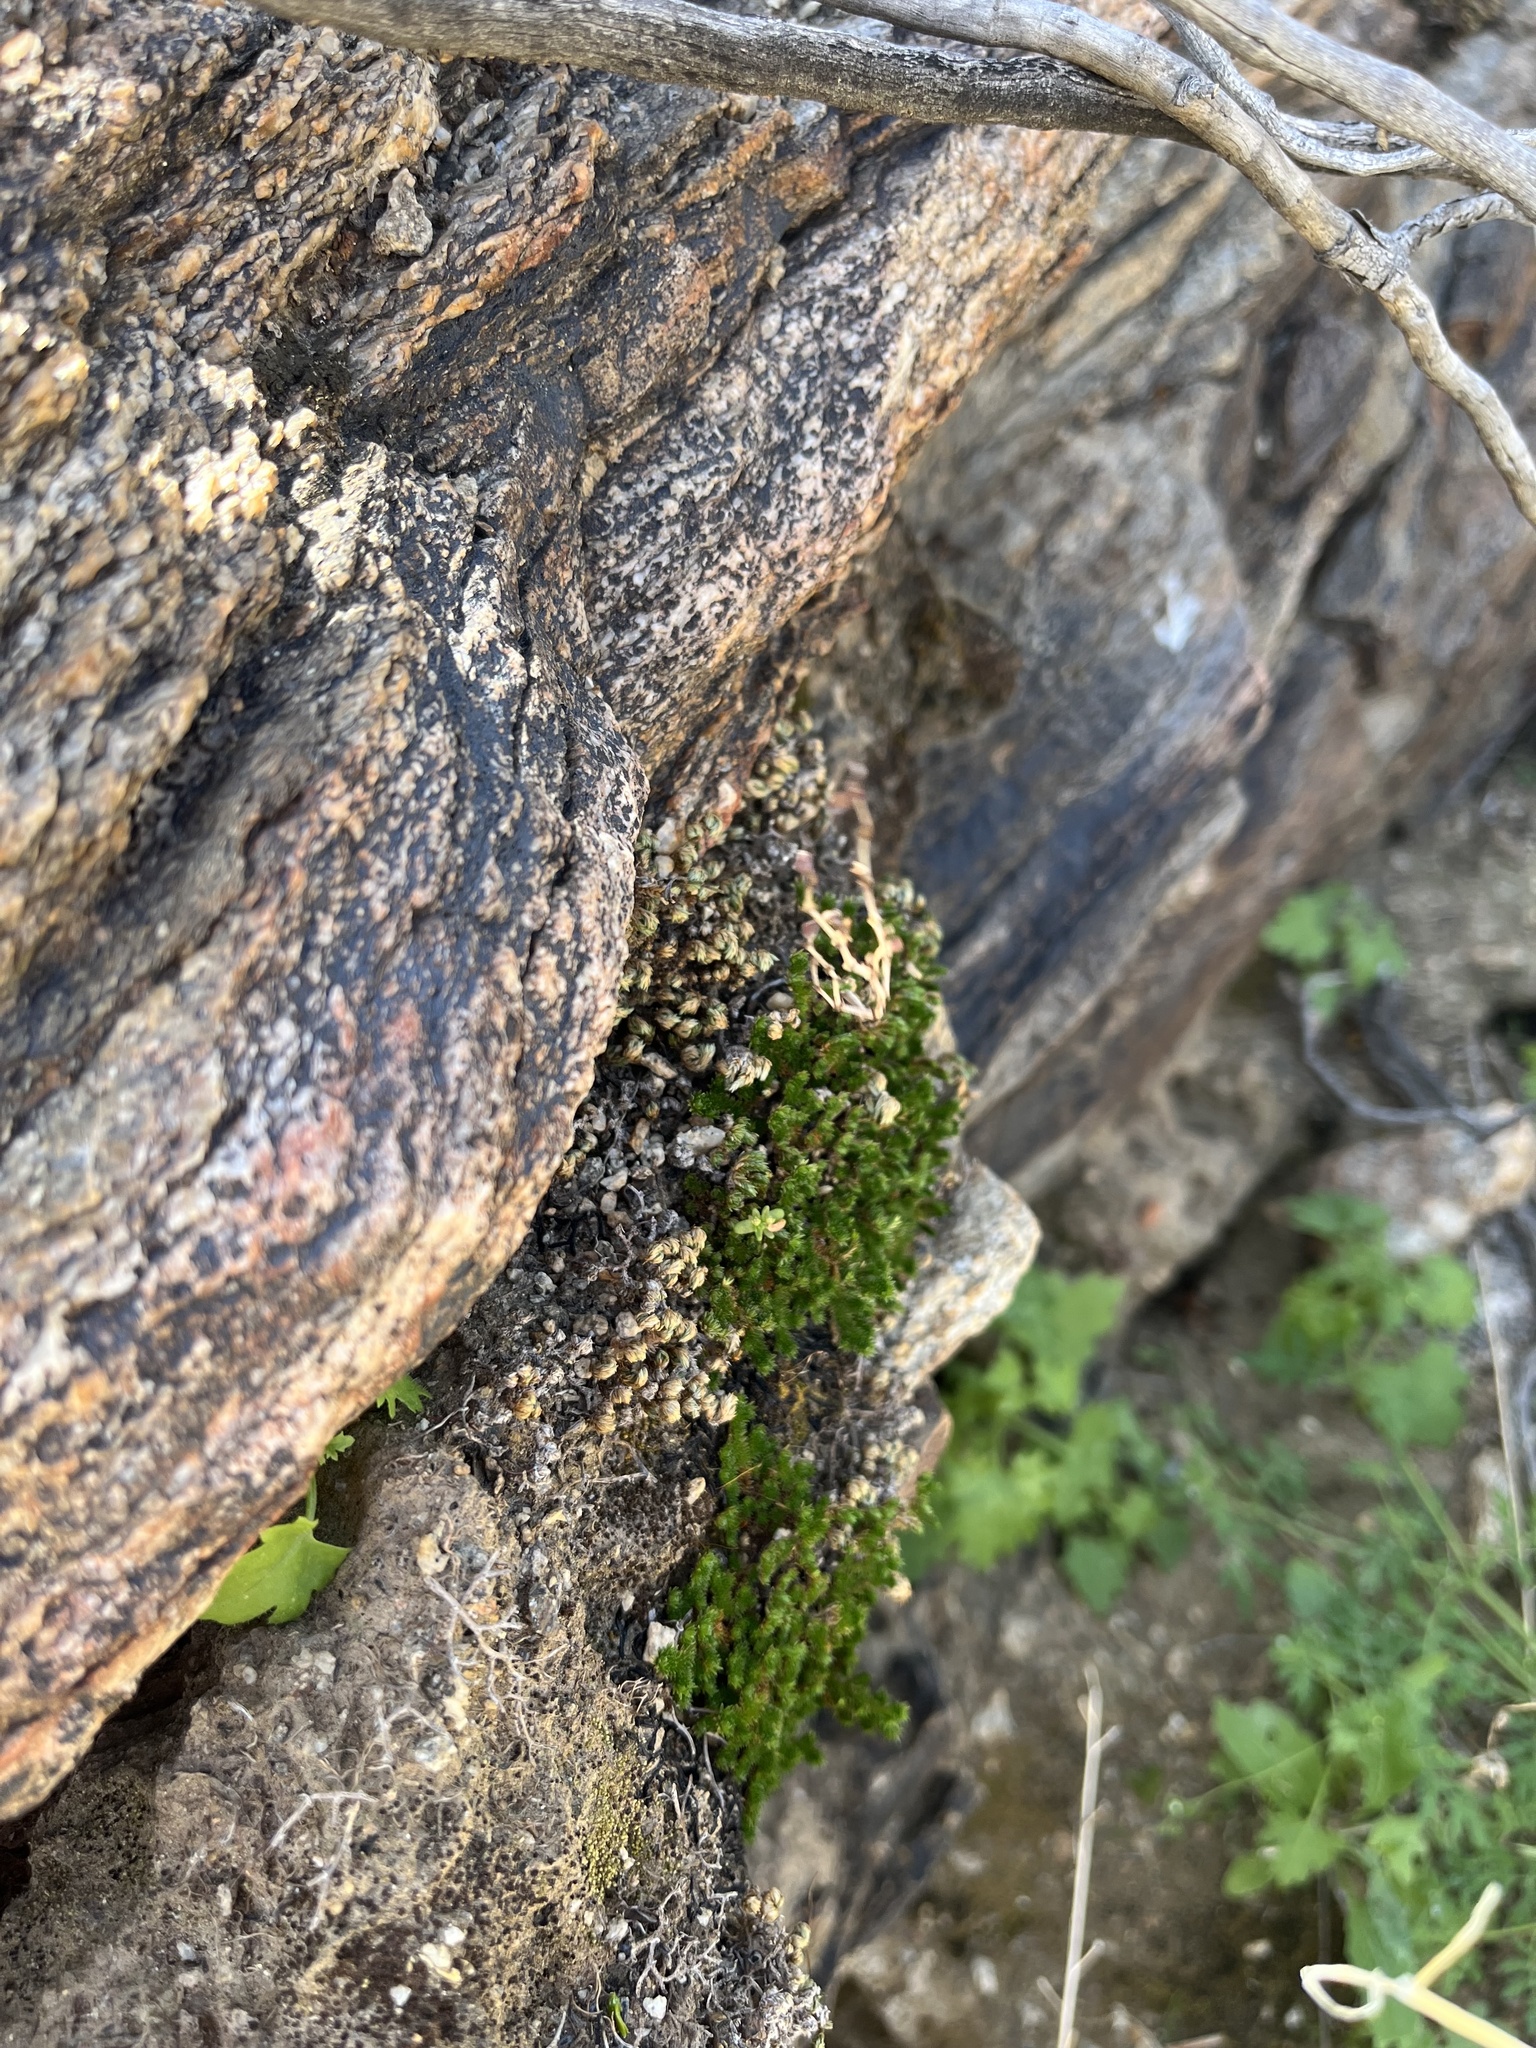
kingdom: Plantae
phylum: Tracheophyta
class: Lycopodiopsida
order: Selaginellales
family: Selaginellaceae
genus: Selaginella
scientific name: Selaginella eremophila
